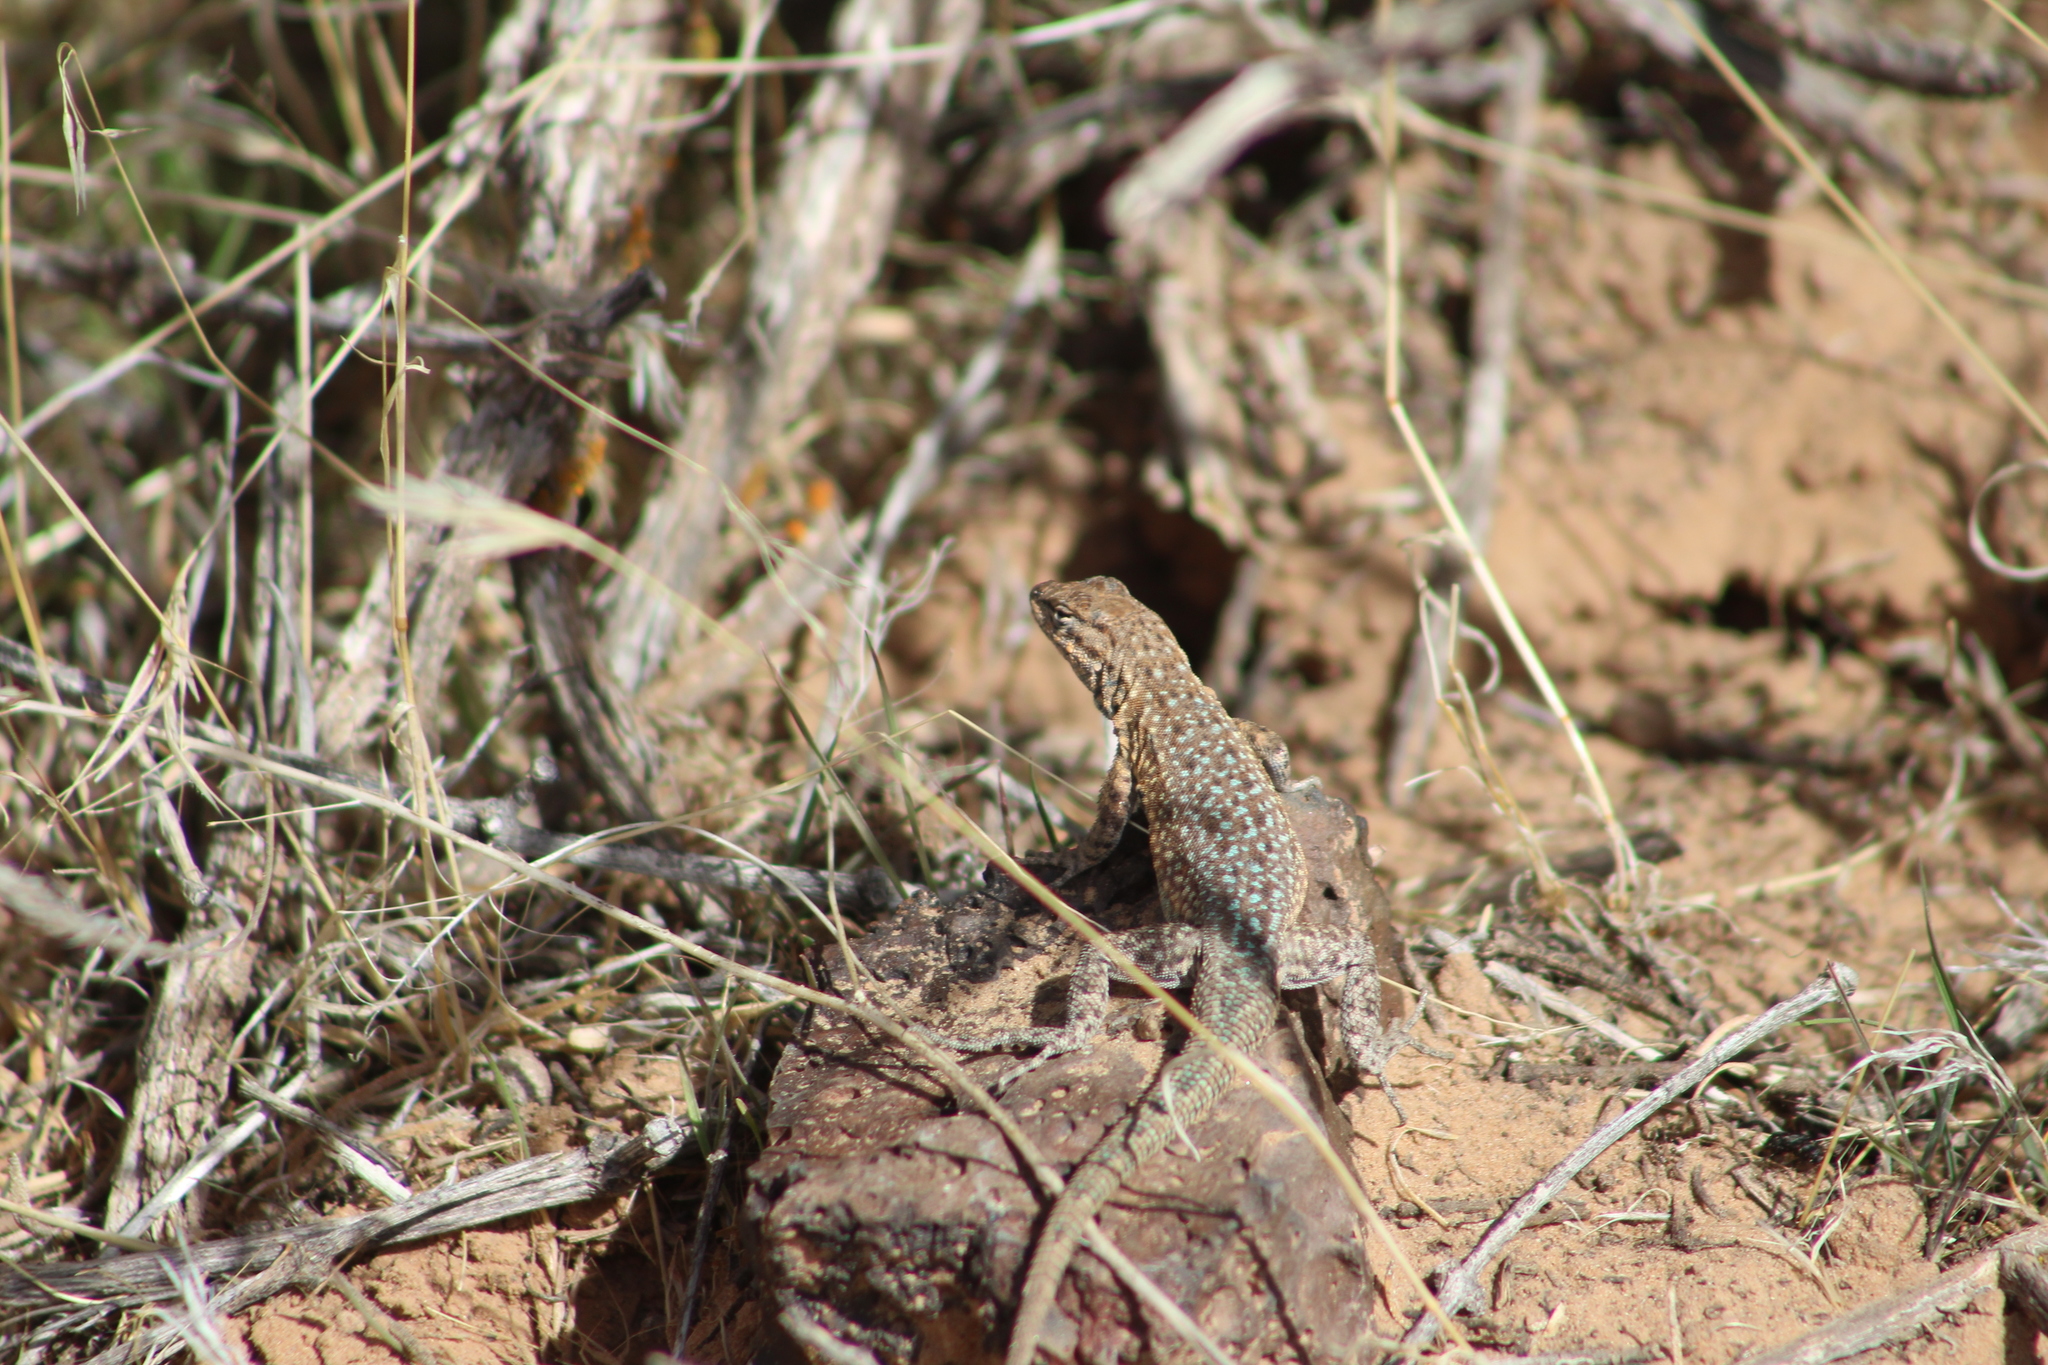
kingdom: Animalia
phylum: Chordata
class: Squamata
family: Phrynosomatidae
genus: Uta
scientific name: Uta stansburiana
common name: Side-blotched lizard
